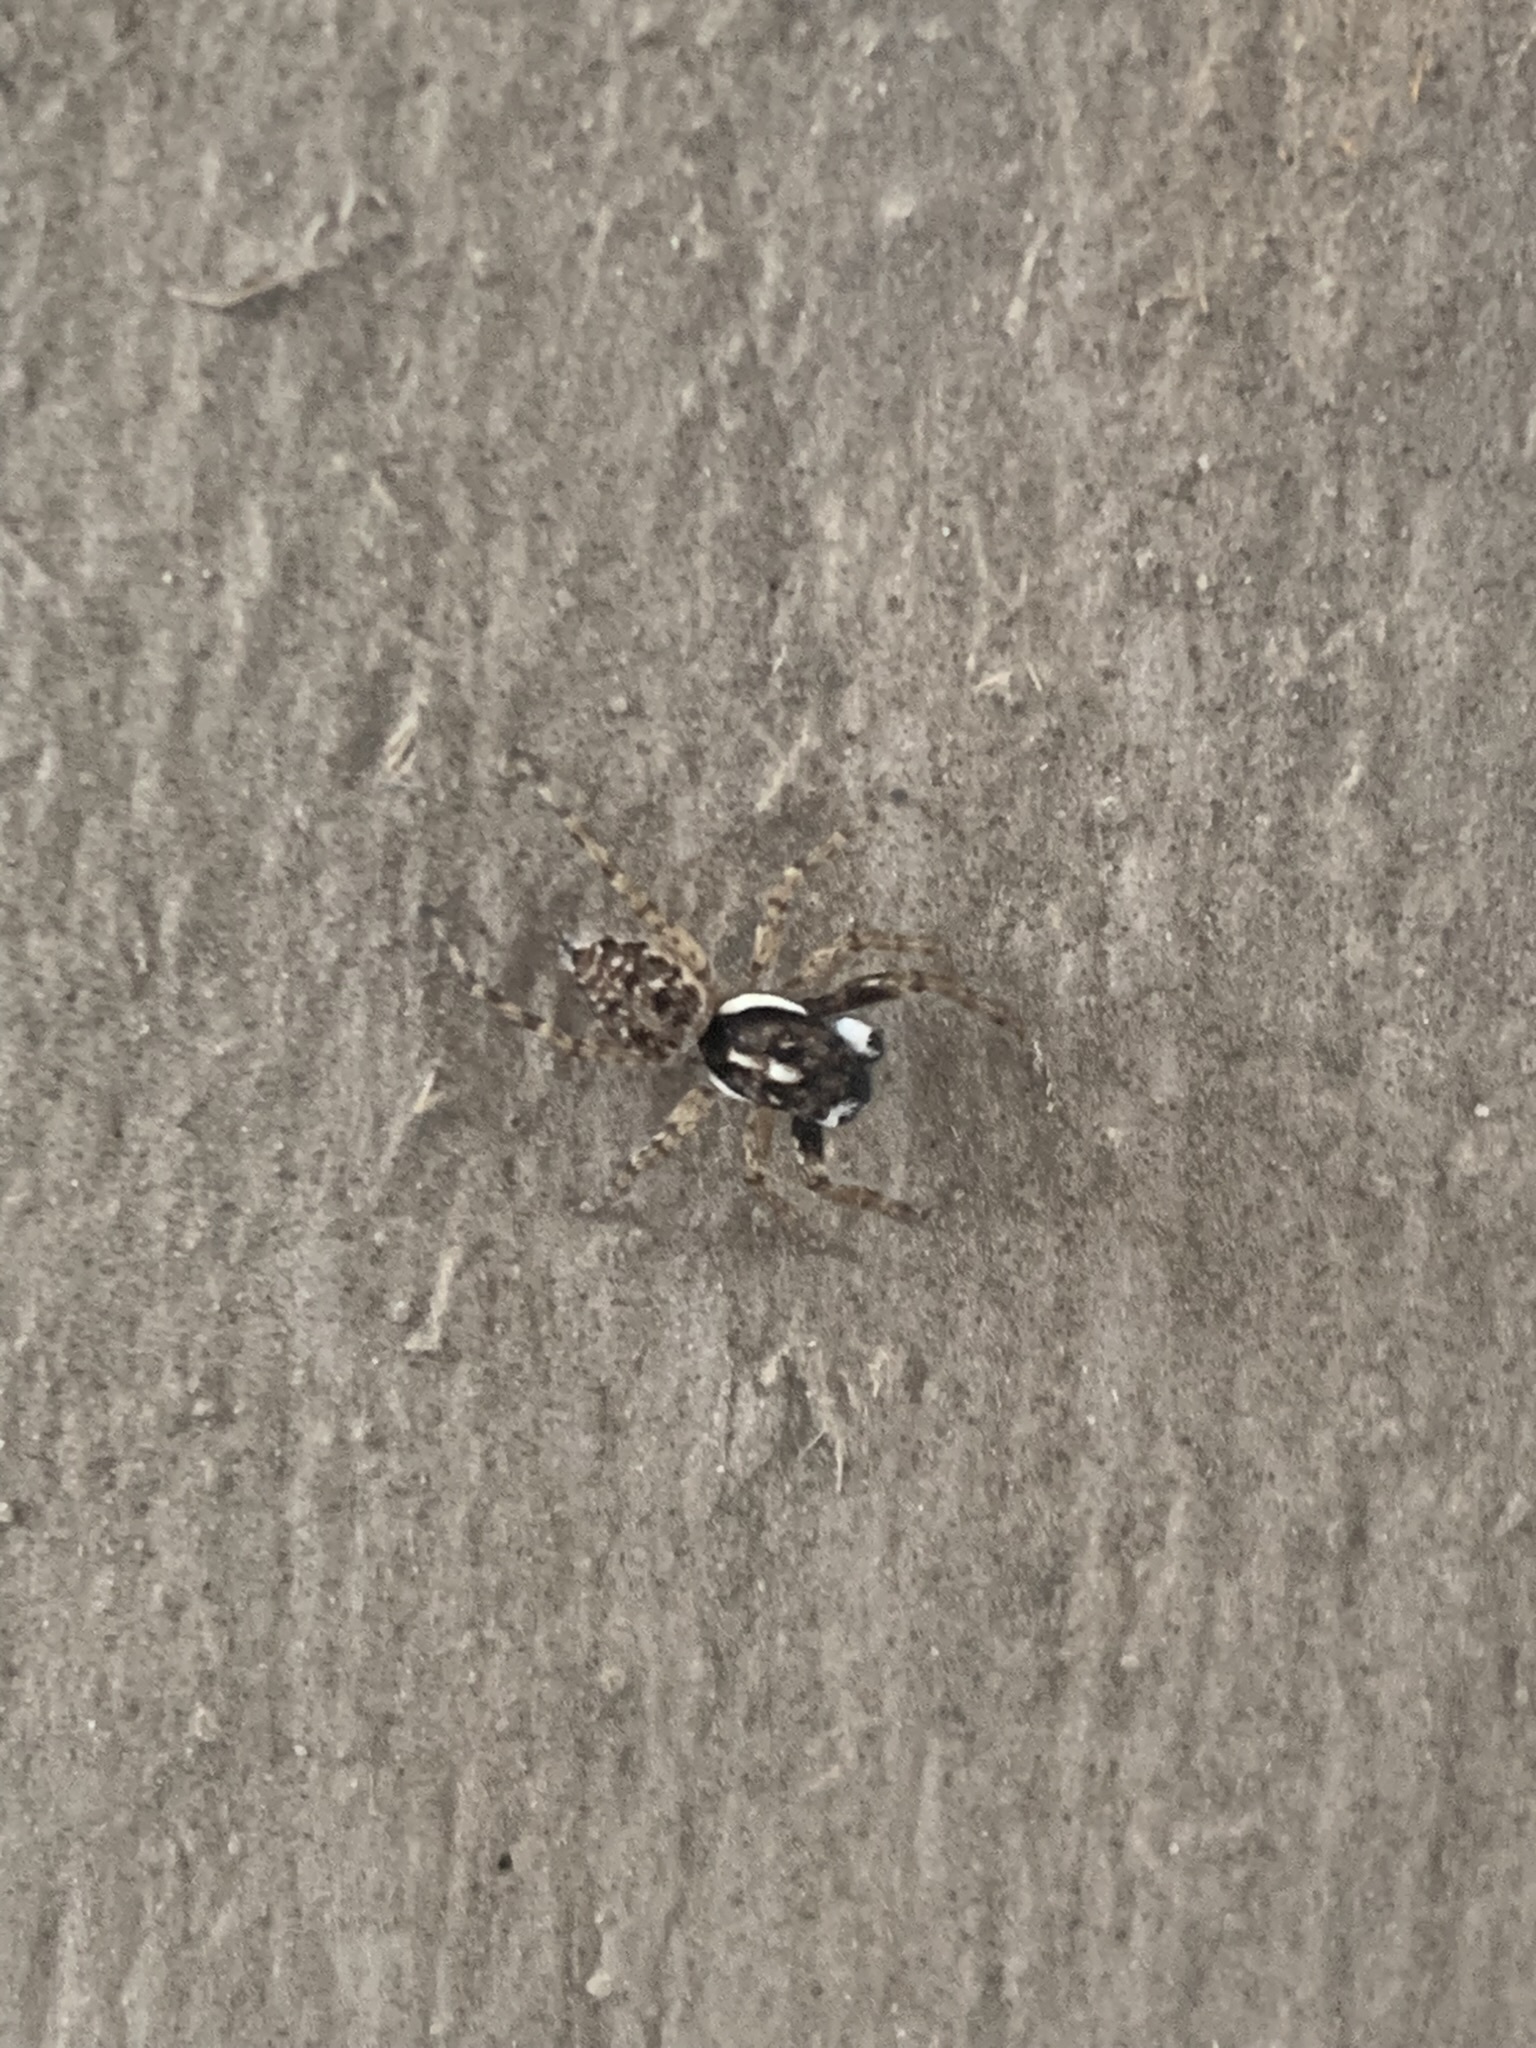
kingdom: Animalia
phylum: Arthropoda
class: Arachnida
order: Araneae
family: Salticidae
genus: Menemerus
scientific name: Menemerus semilimbatus
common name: Jumping spider
